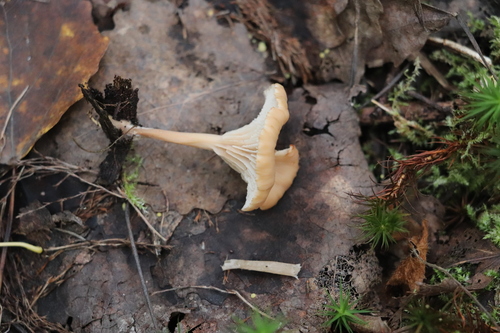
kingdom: Fungi
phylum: Basidiomycota
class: Agaricomycetes
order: Russulales
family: Auriscalpiaceae
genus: Lentinellus
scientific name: Lentinellus micheneri
